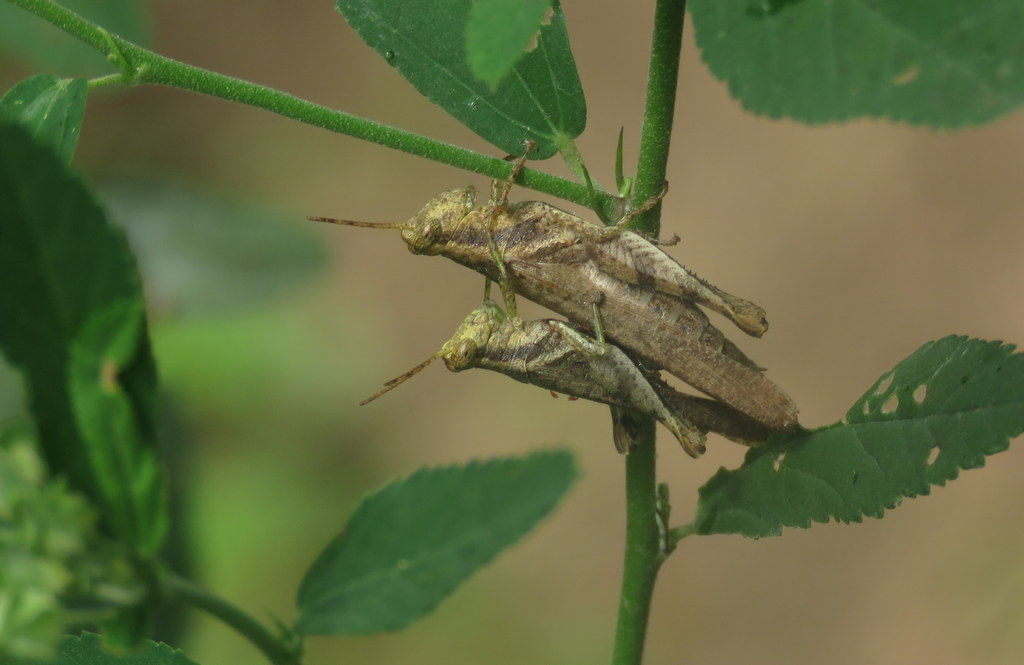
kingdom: Animalia
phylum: Arthropoda
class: Insecta
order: Orthoptera
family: Acrididae
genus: Omalotettix
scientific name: Omalotettix obliquus
